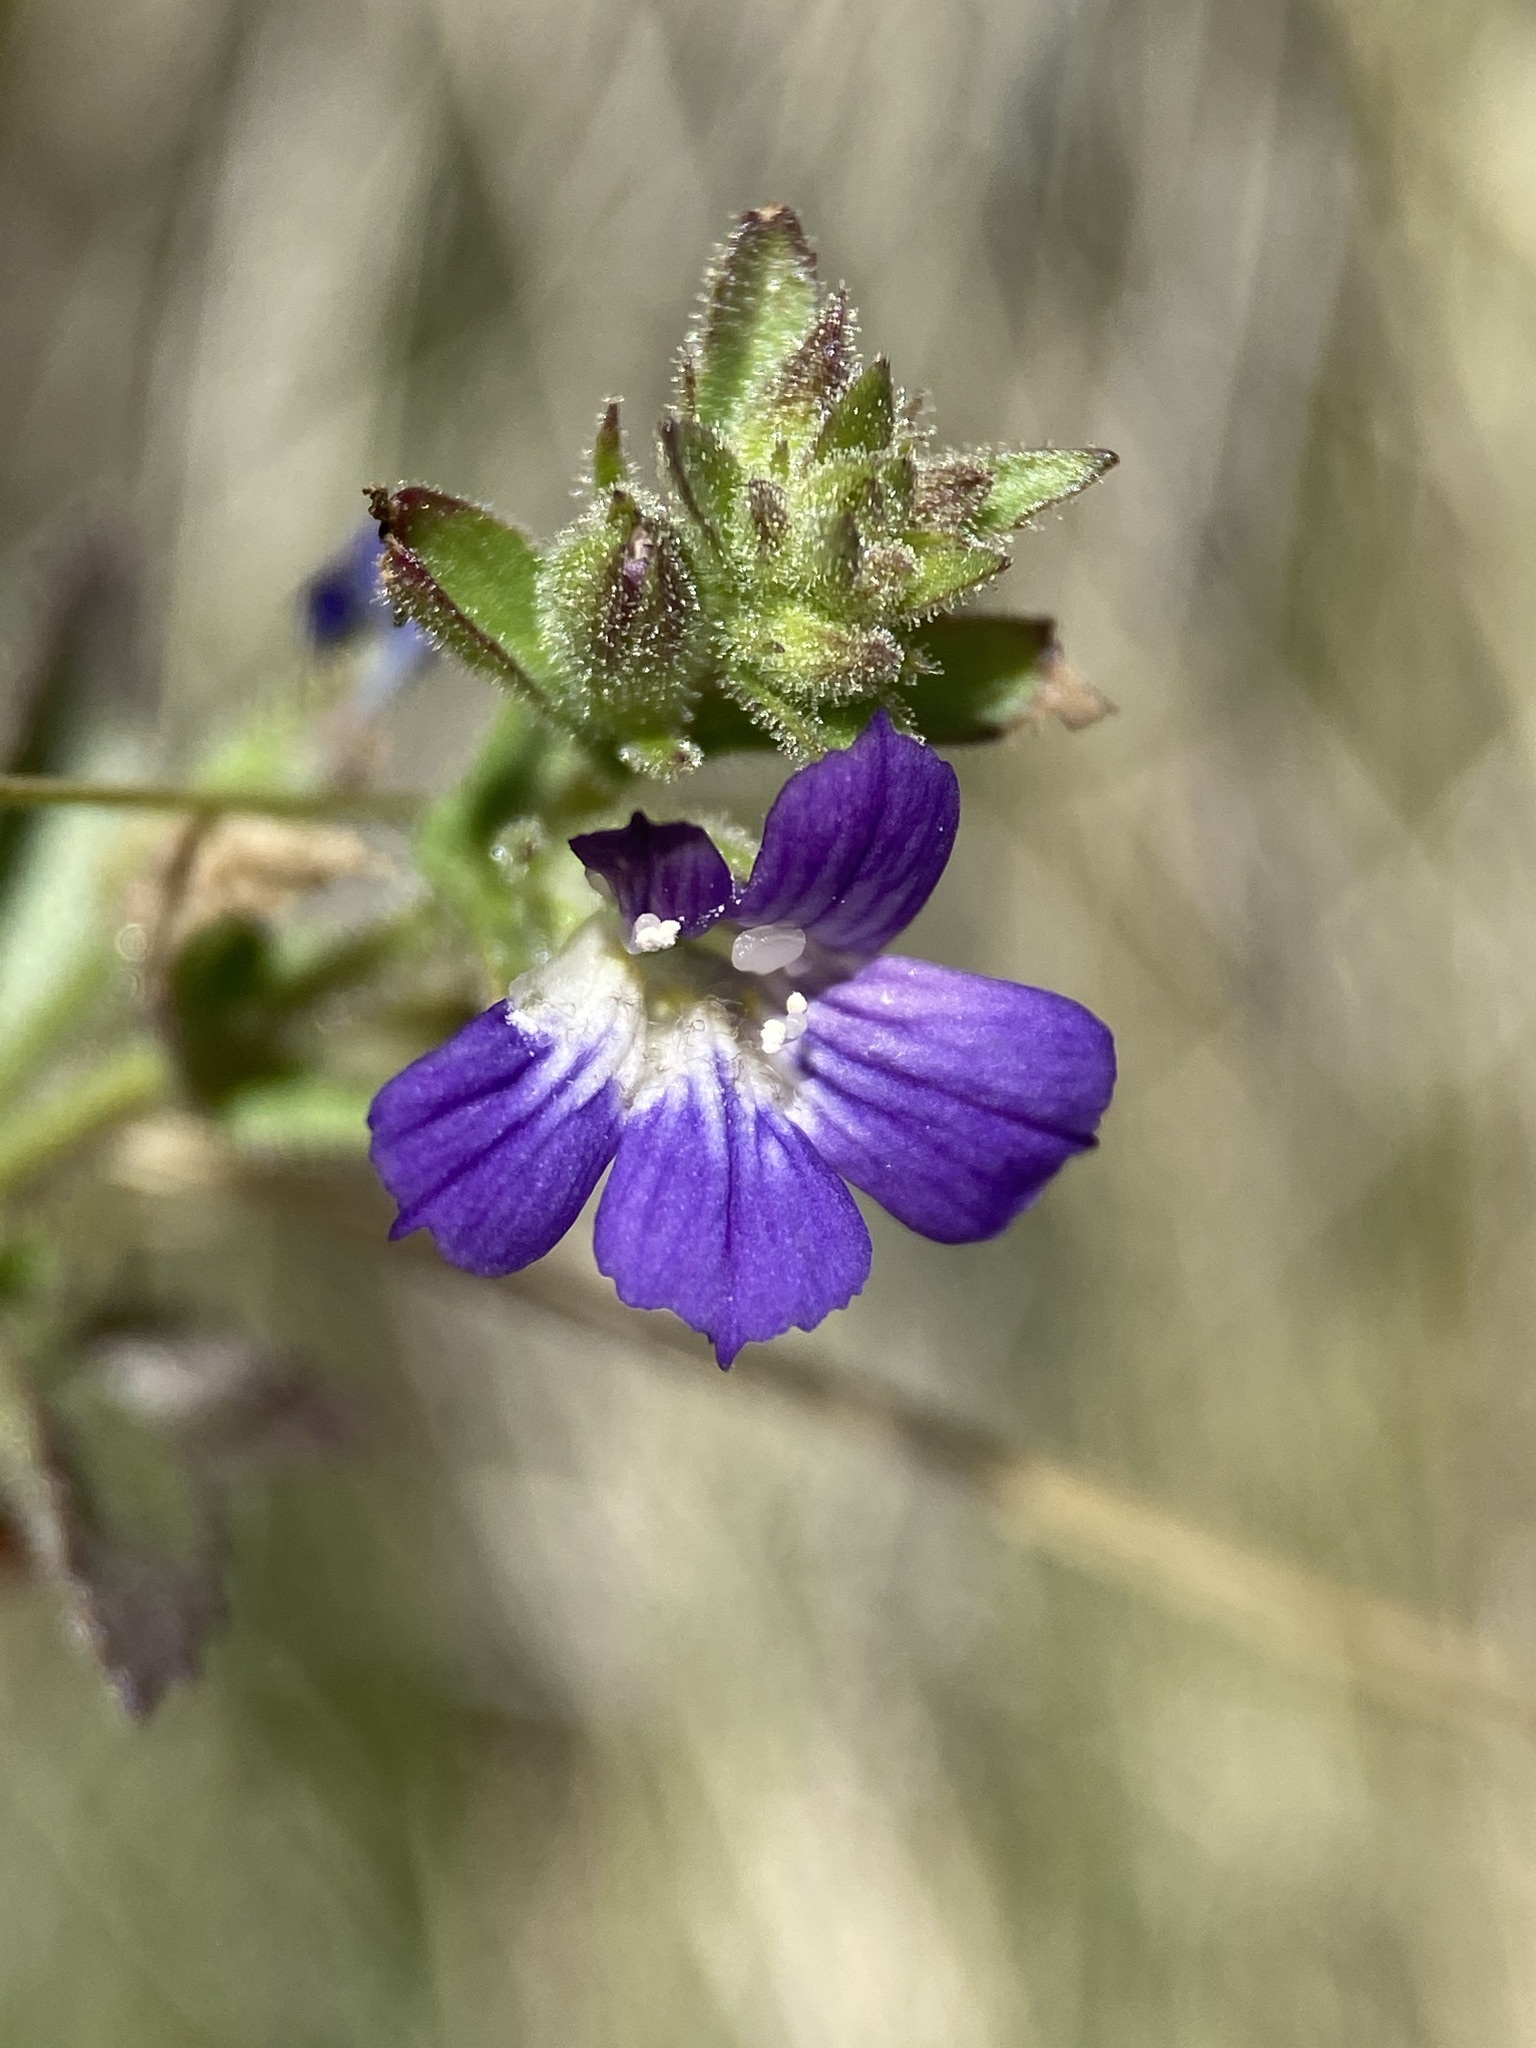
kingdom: Plantae
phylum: Tracheophyta
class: Magnoliopsida
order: Lamiales
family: Plantaginaceae
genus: Stemodia
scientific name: Stemodia durantifolia
